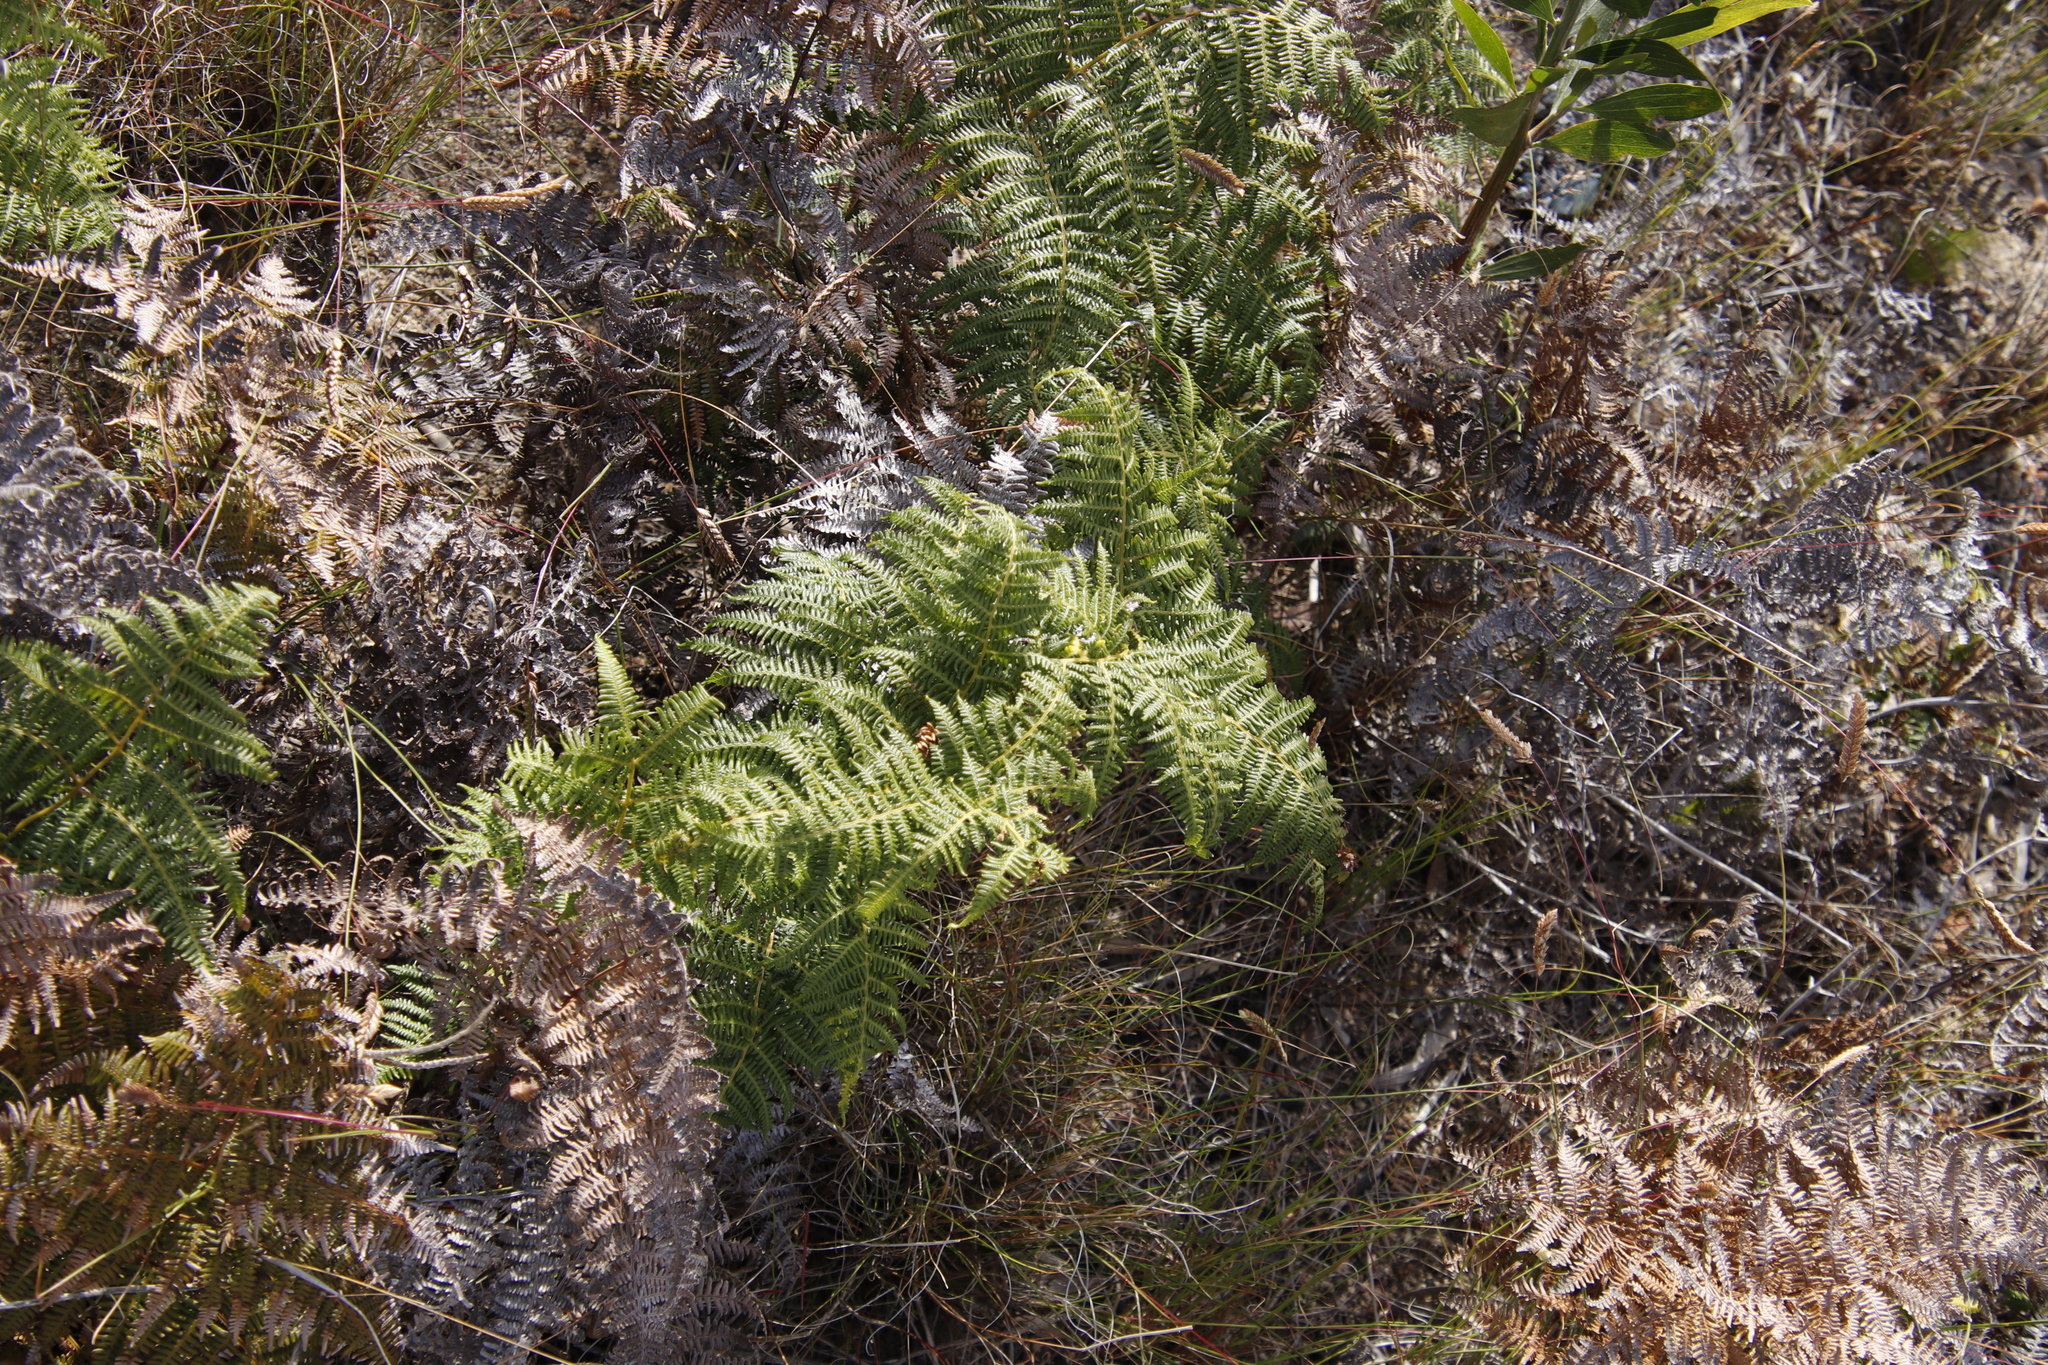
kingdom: Plantae
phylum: Tracheophyta
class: Polypodiopsida
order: Polypodiales
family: Dennstaedtiaceae
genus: Pteridium
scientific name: Pteridium aquilinum
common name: Bracken
